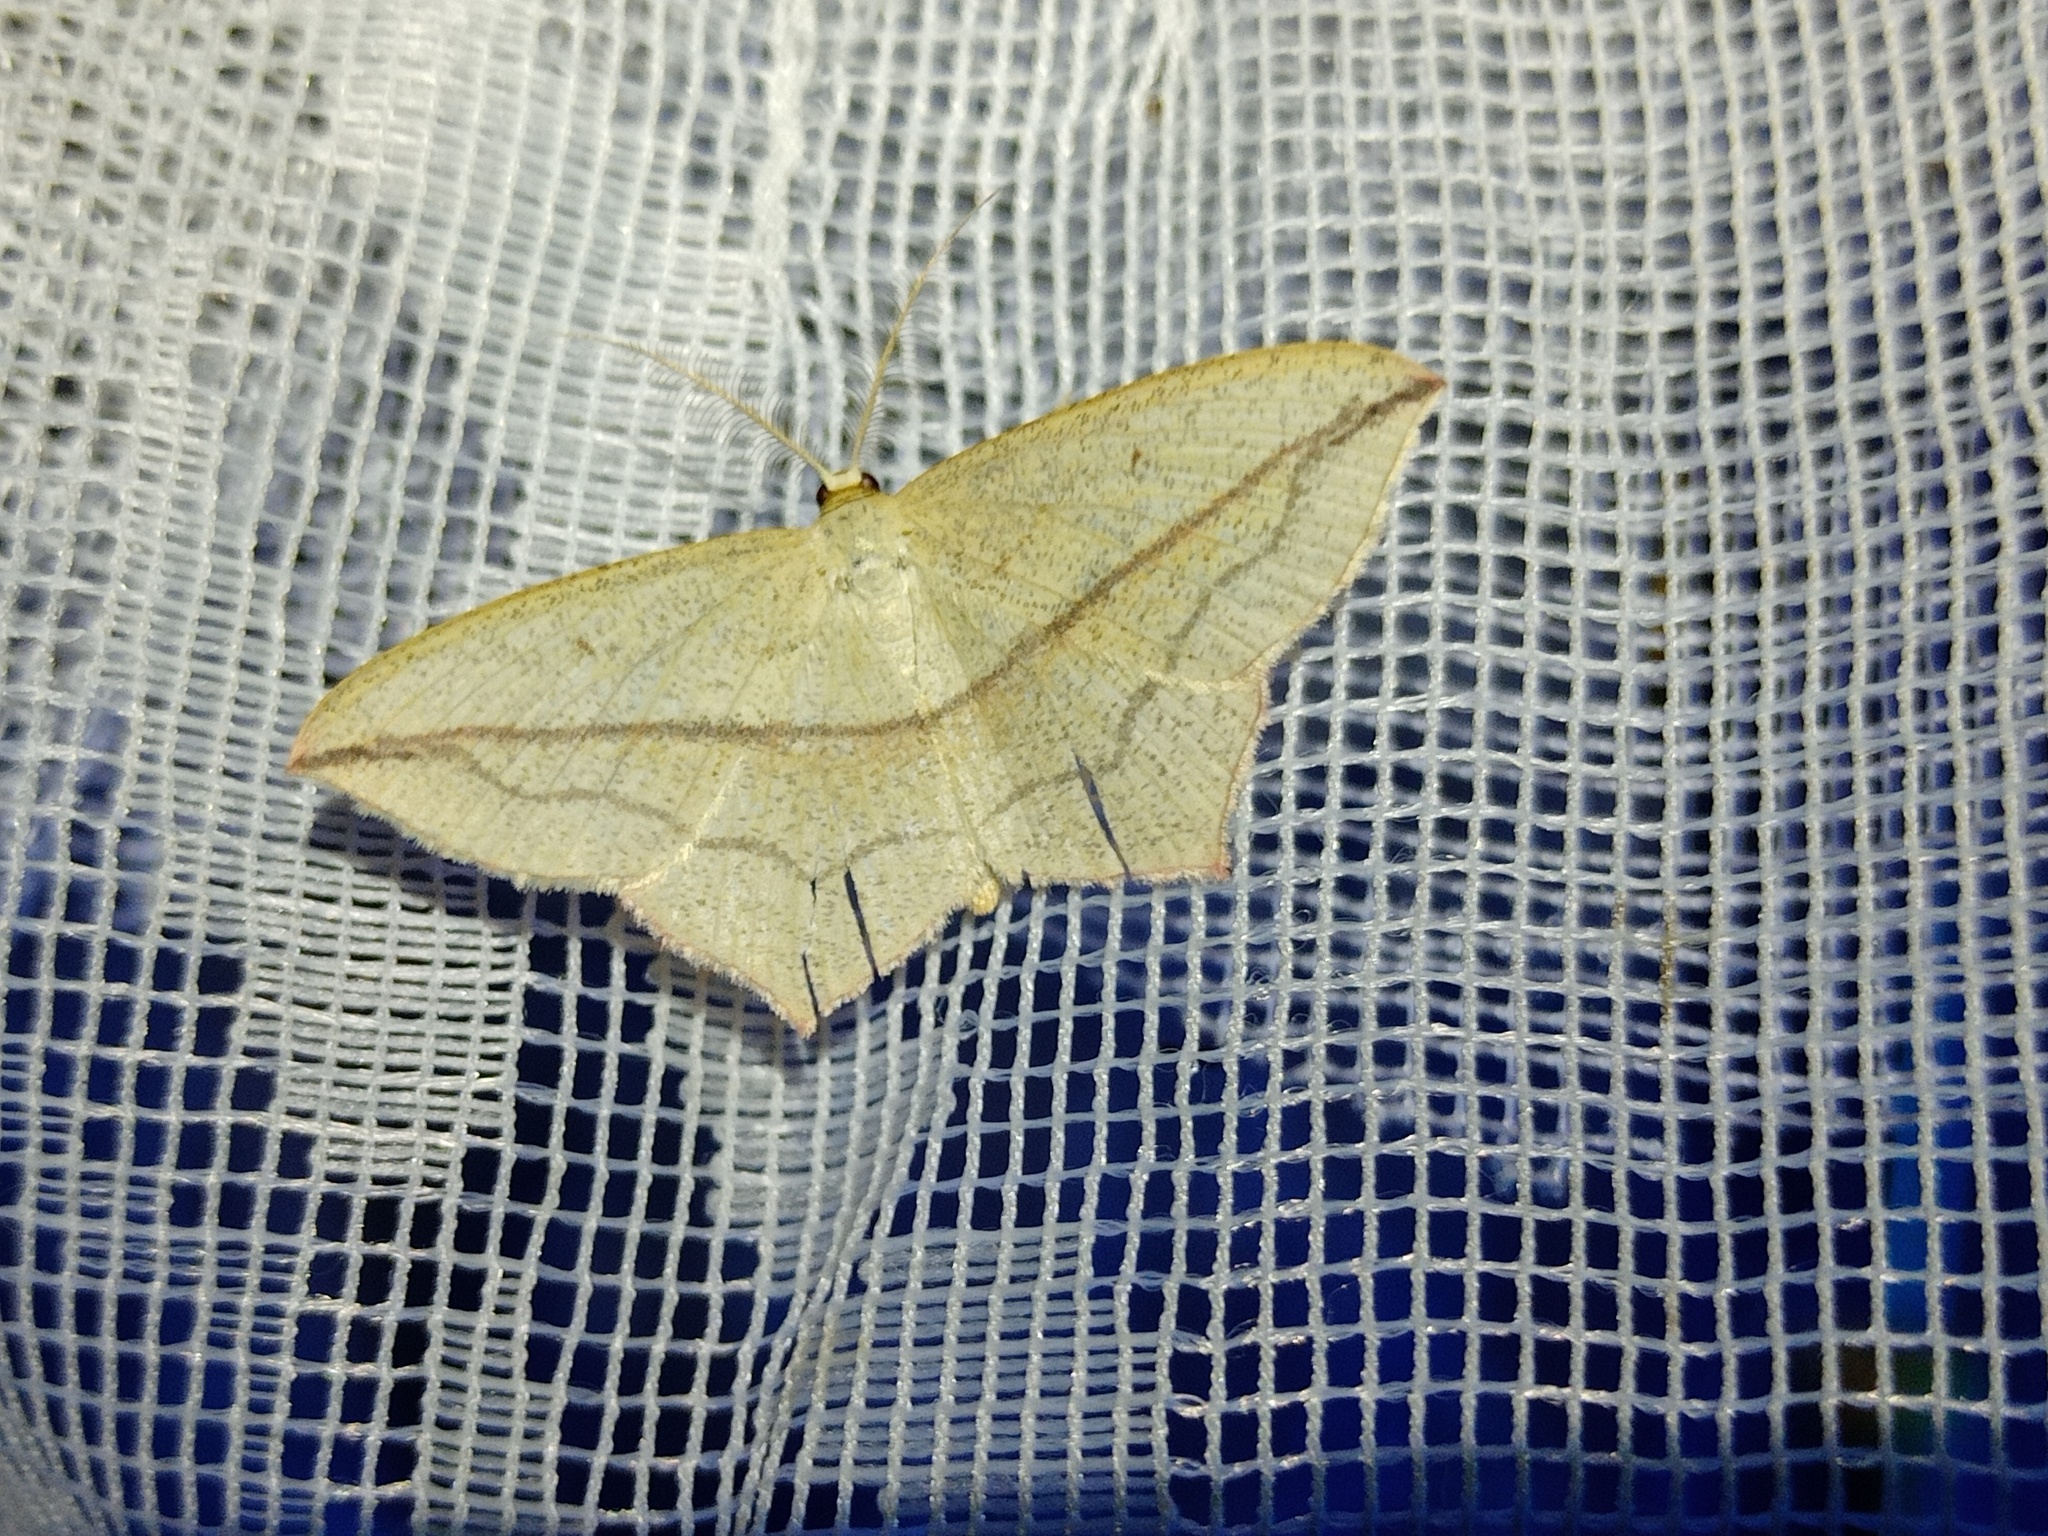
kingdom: Animalia
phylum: Arthropoda
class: Insecta
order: Lepidoptera
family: Geometridae
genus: Timandra
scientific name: Timandra comae
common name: Blood-vein
